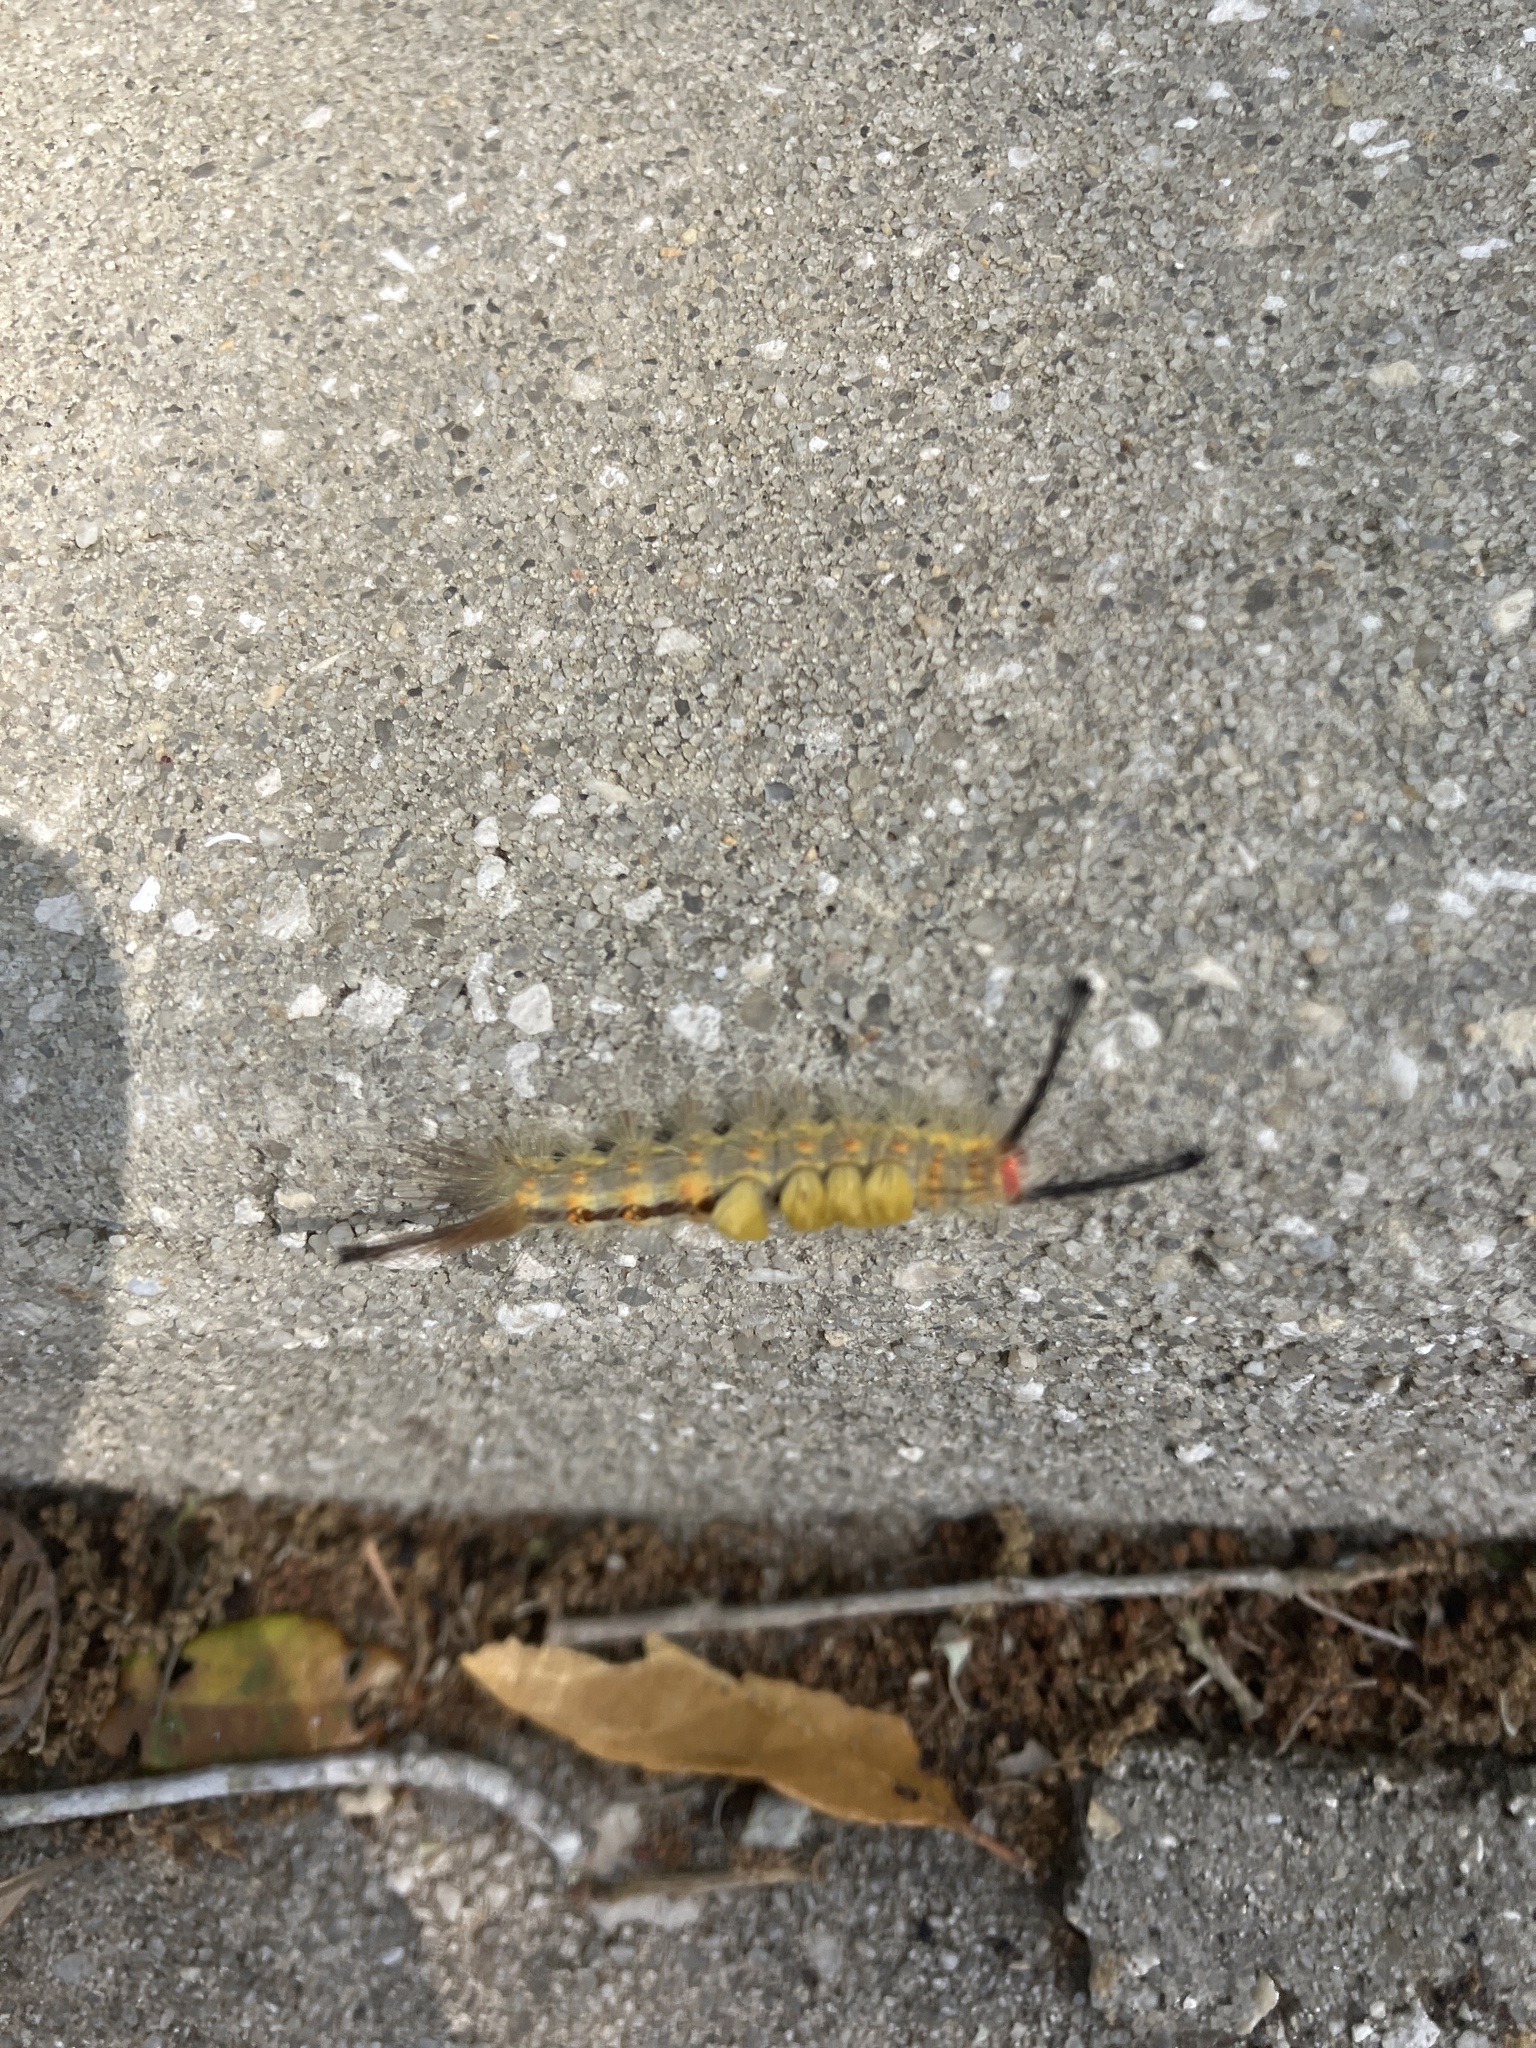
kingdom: Animalia
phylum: Arthropoda
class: Insecta
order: Lepidoptera
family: Erebidae
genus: Orgyia
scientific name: Orgyia detrita
